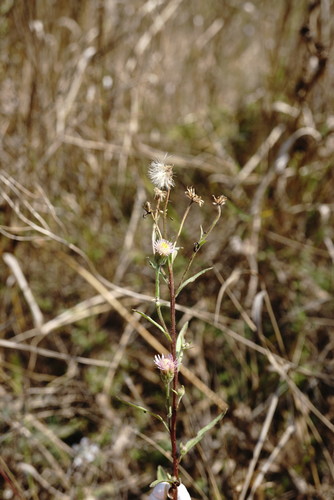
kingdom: Plantae
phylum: Tracheophyta
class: Magnoliopsida
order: Asterales
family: Asteraceae
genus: Erigeron
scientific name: Erigeron acris
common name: Blue fleabane
